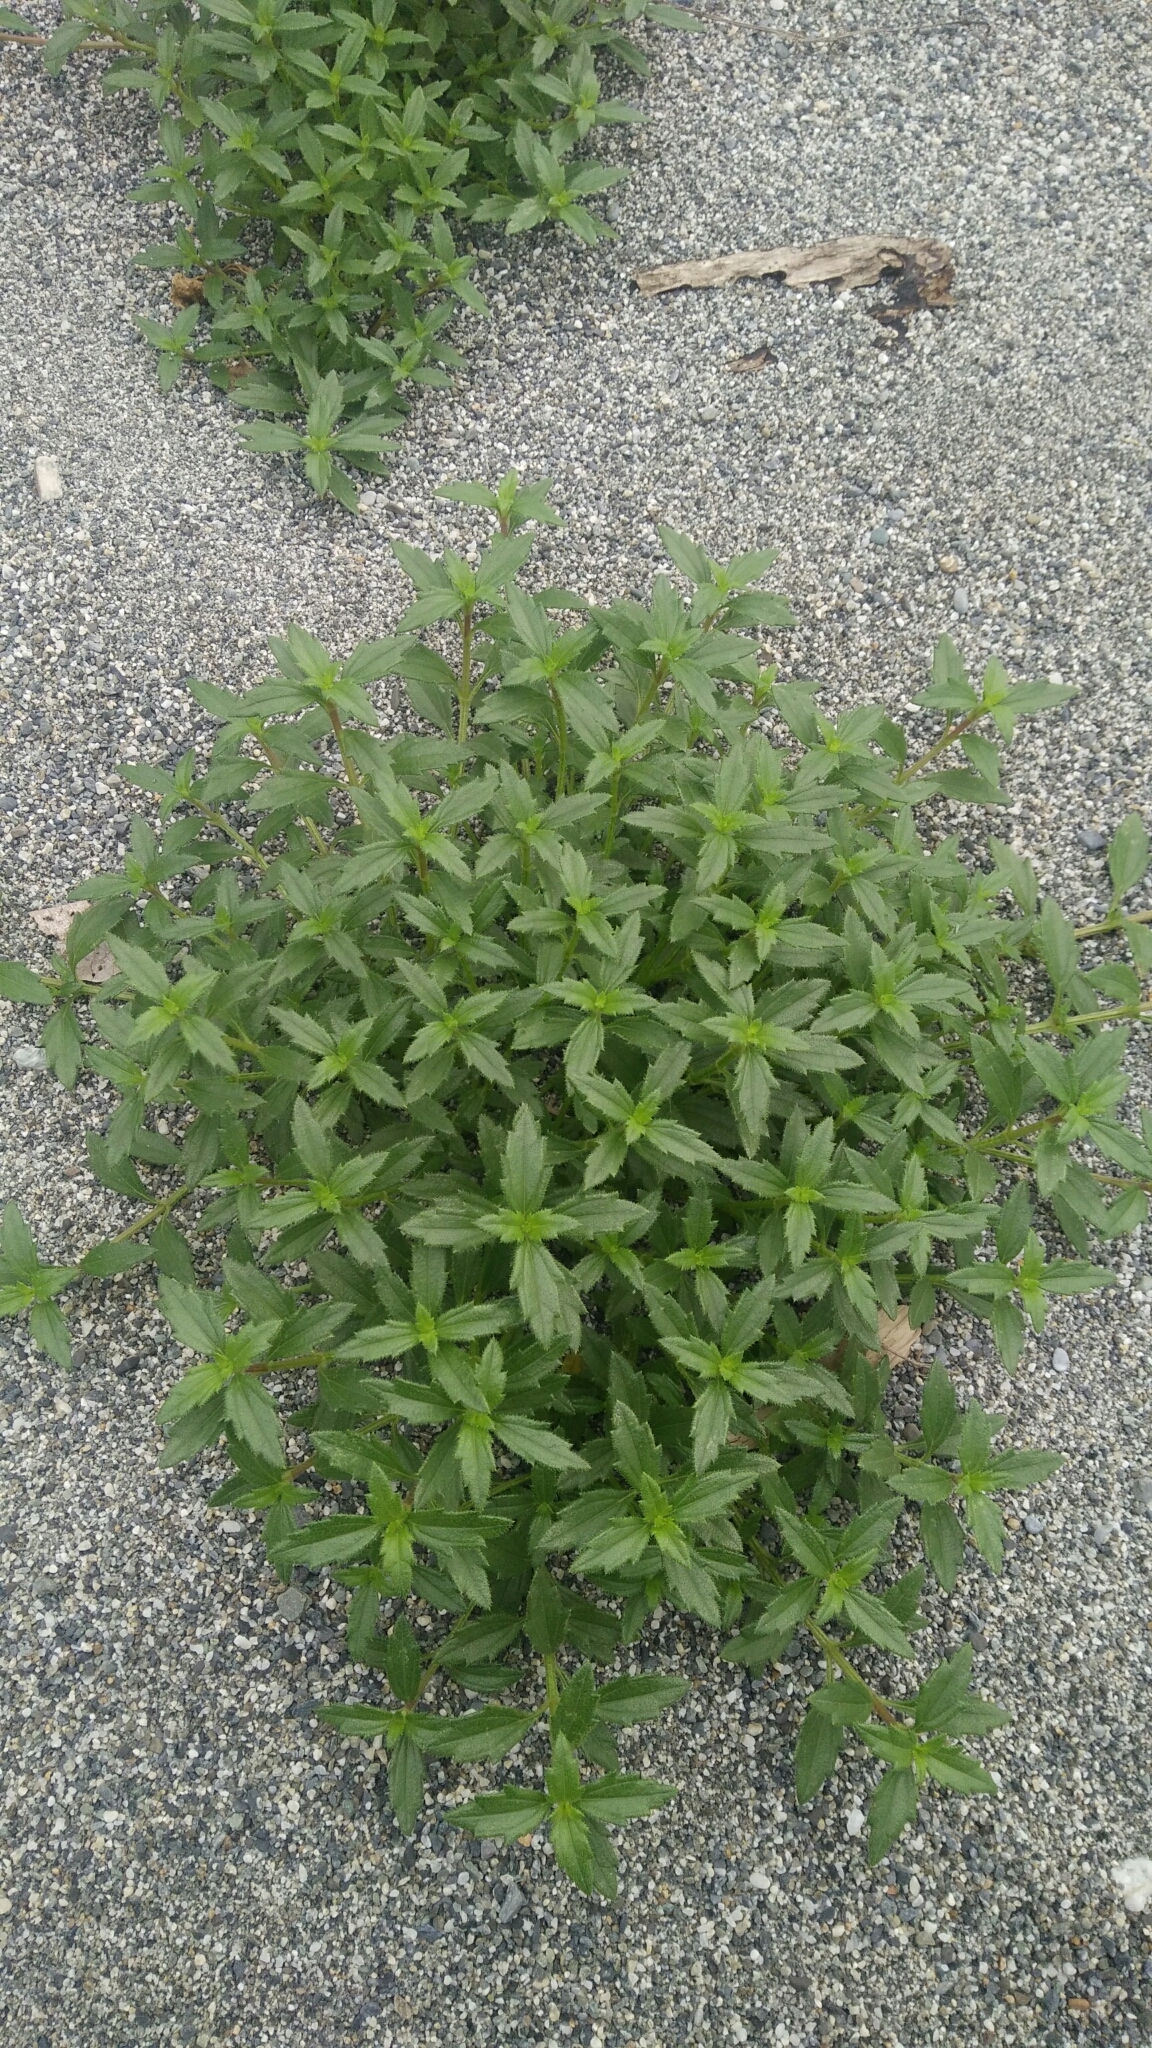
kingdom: Plantae
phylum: Tracheophyta
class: Magnoliopsida
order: Asterales
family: Asteraceae
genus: Melanthera
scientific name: Melanthera prostrata
